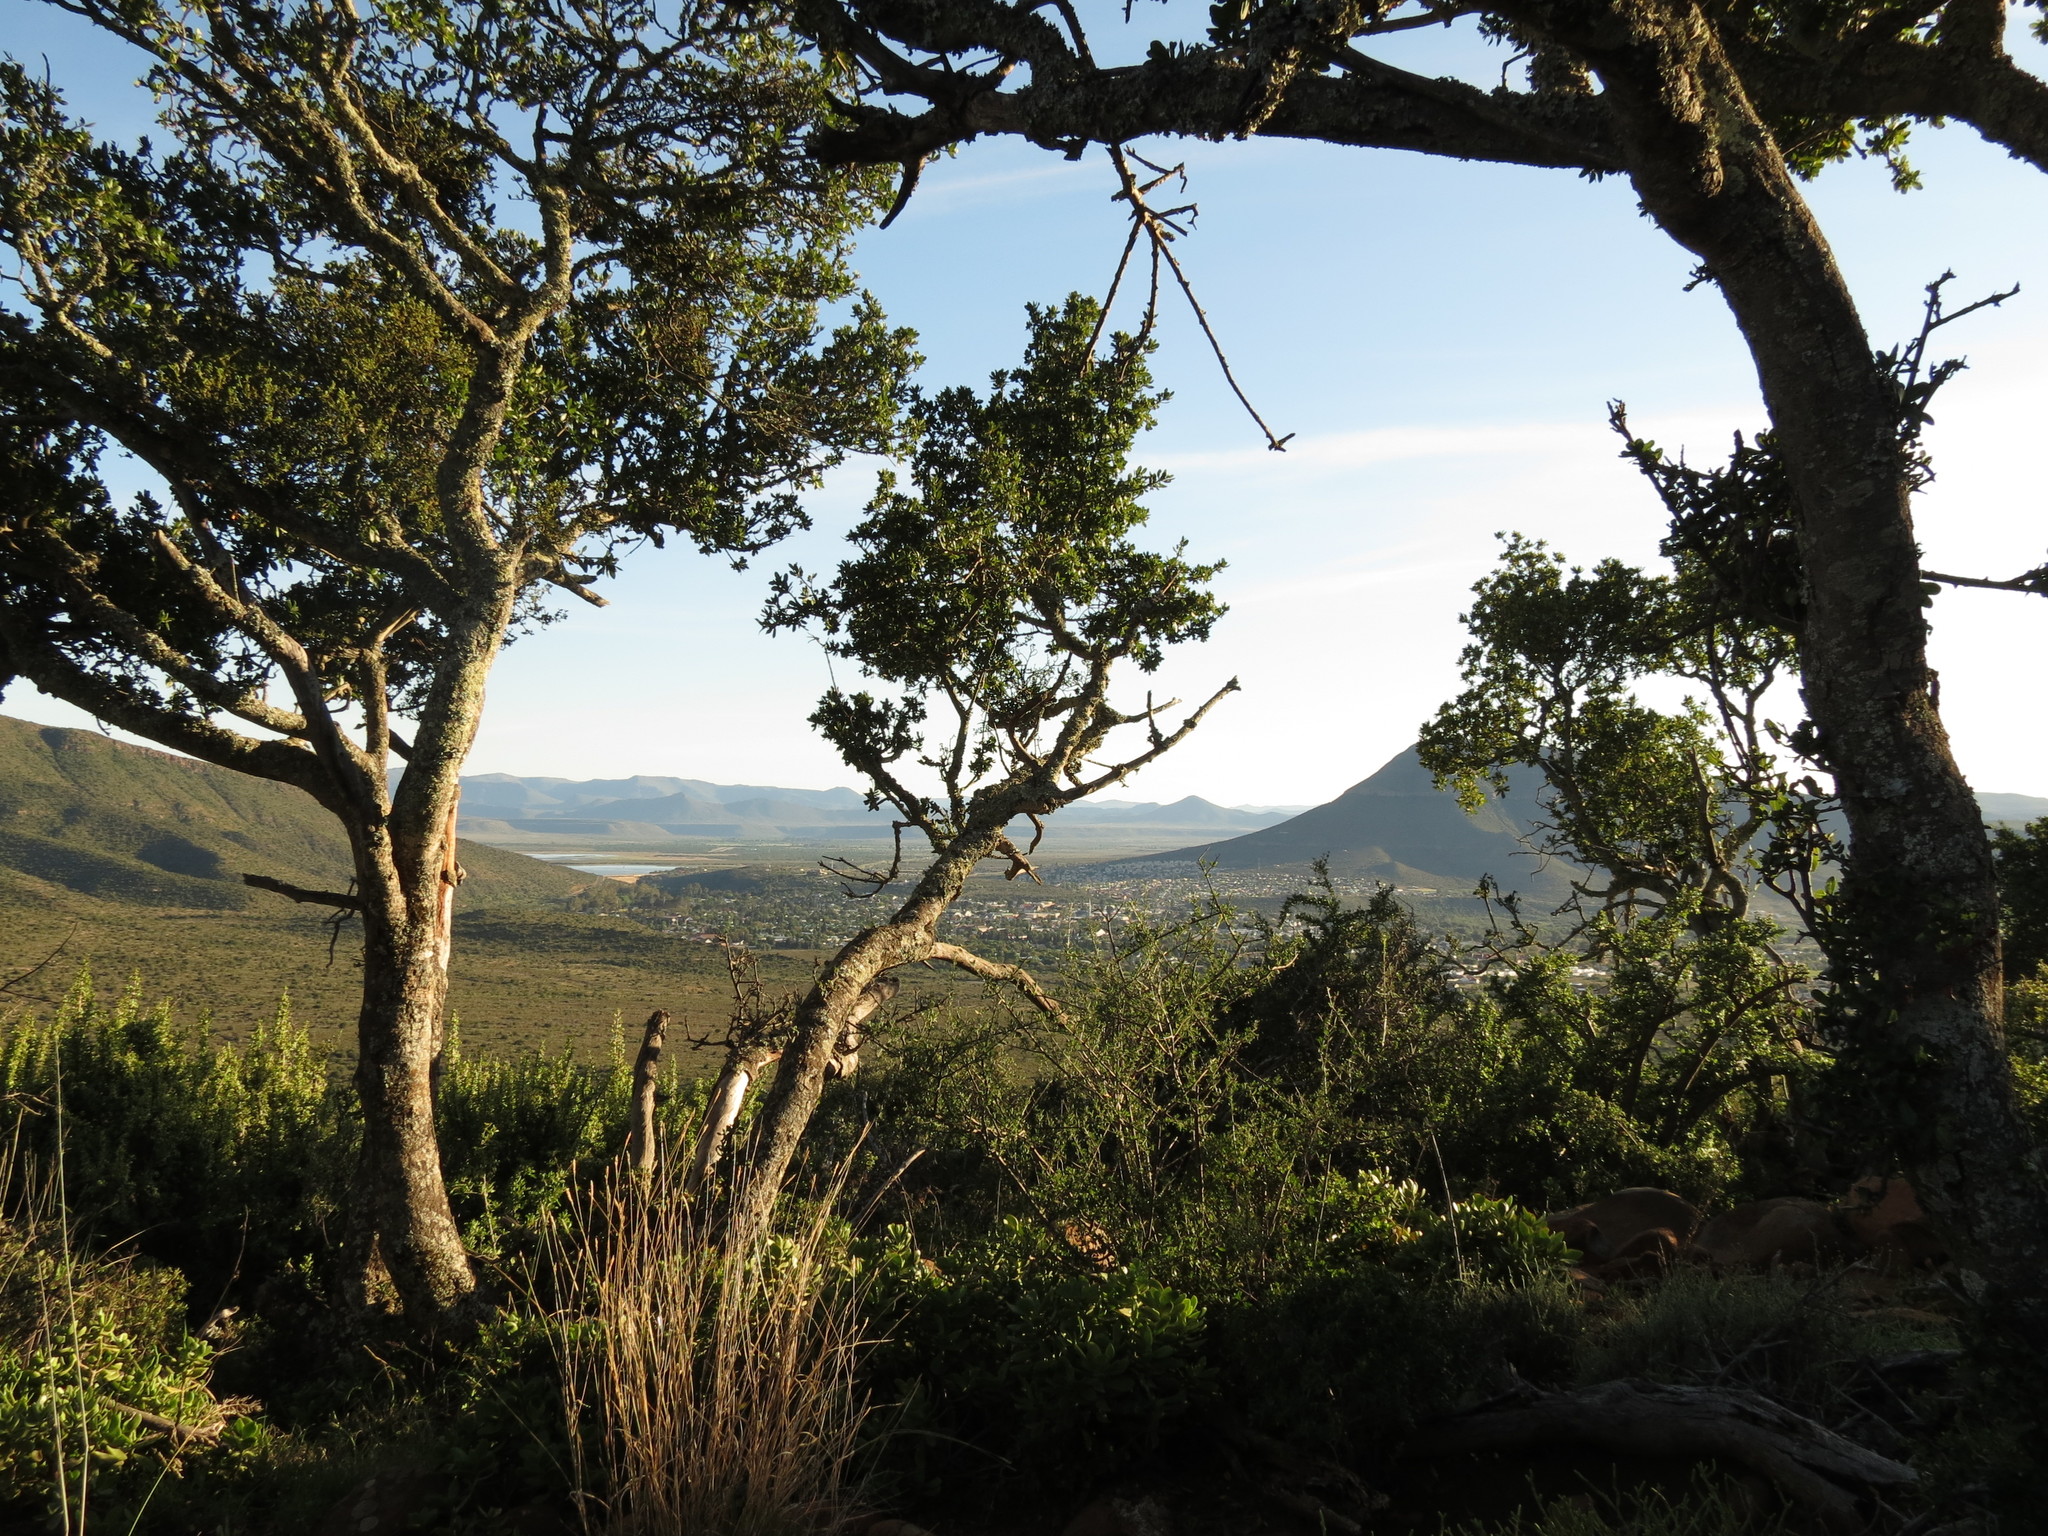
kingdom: Plantae
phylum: Tracheophyta
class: Magnoliopsida
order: Sapindales
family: Sapindaceae
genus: Pappea
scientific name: Pappea capensis
